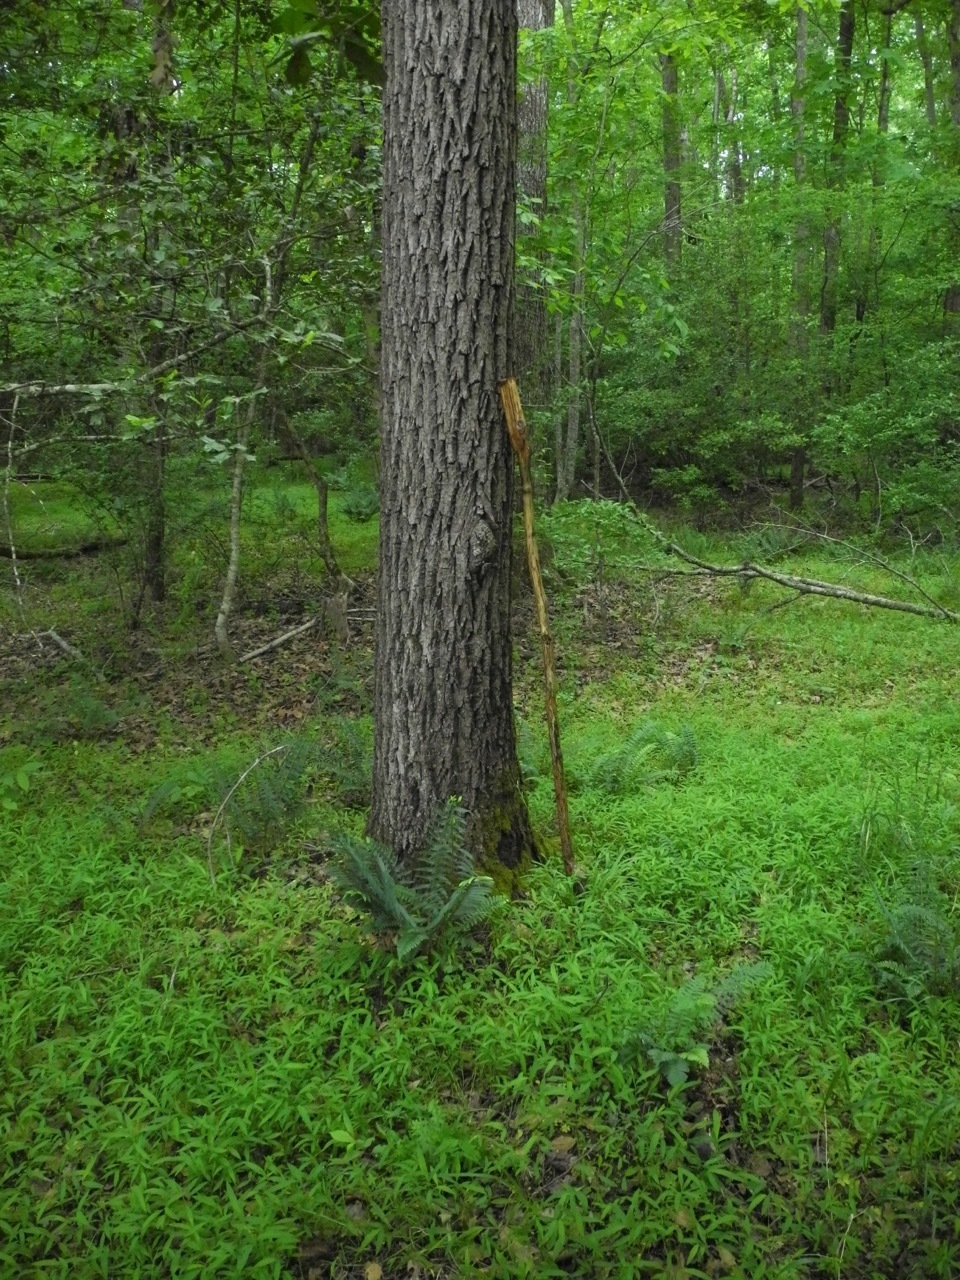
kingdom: Plantae
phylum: Tracheophyta
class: Magnoliopsida
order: Fagales
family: Juglandaceae
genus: Juglans
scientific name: Juglans nigra
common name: Black walnut
